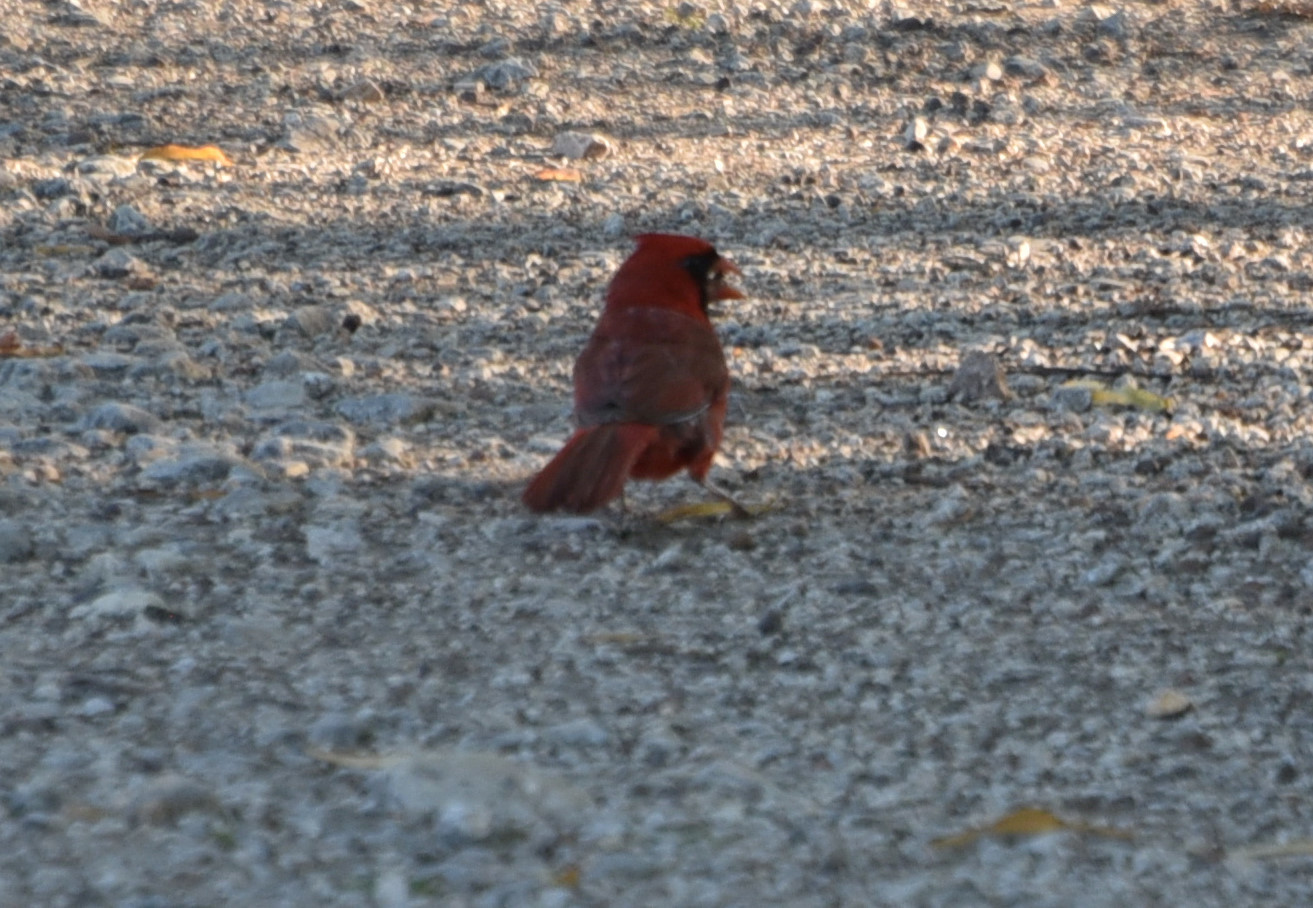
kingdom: Animalia
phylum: Chordata
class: Aves
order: Passeriformes
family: Cardinalidae
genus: Cardinalis
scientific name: Cardinalis cardinalis
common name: Northern cardinal
